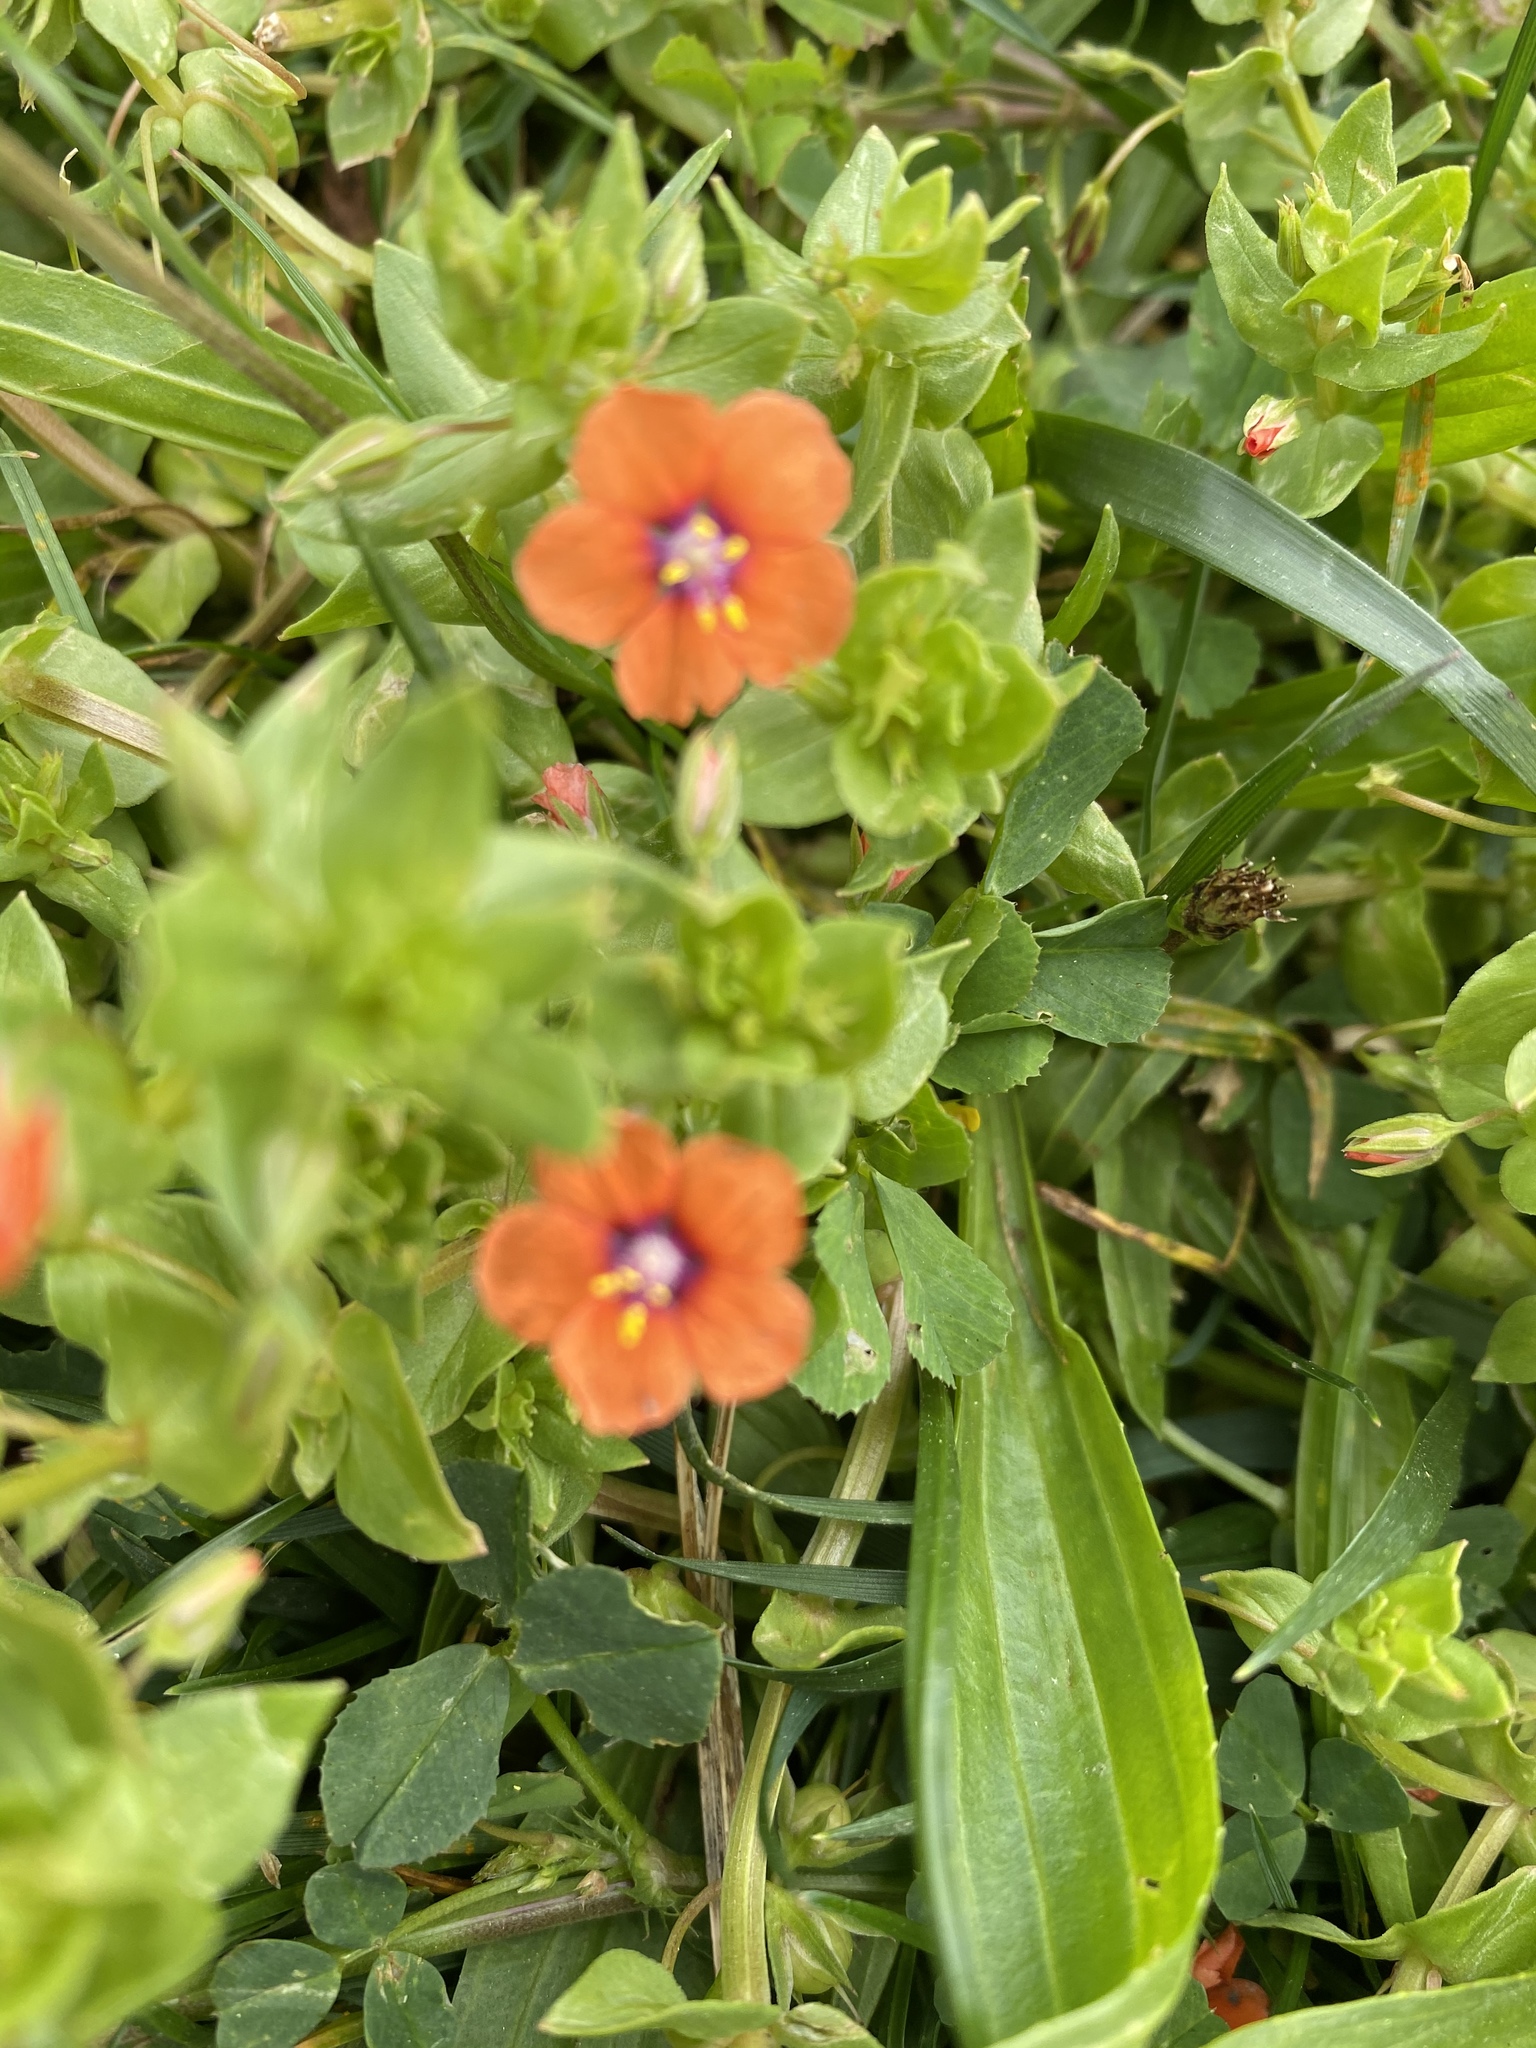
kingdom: Plantae
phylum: Tracheophyta
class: Magnoliopsida
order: Ericales
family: Primulaceae
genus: Lysimachia
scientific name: Lysimachia arvensis
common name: Scarlet pimpernel
